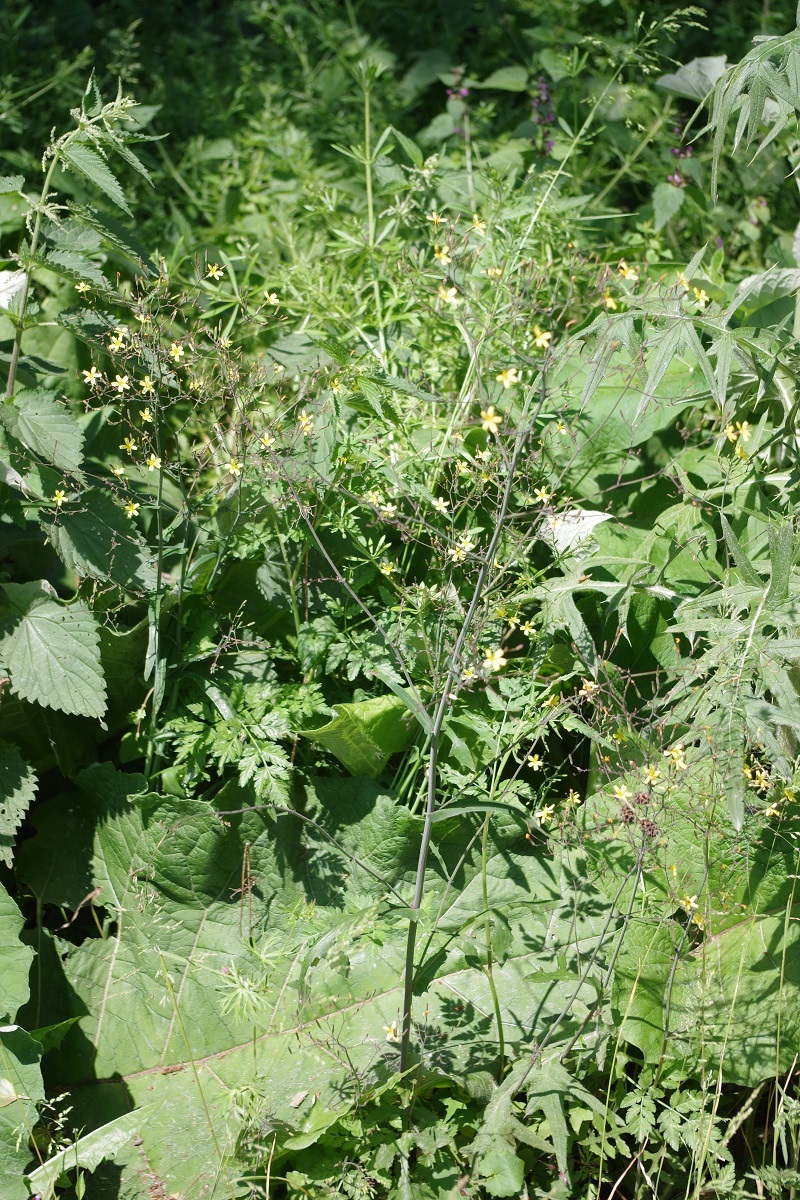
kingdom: Plantae
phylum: Tracheophyta
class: Magnoliopsida
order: Asterales
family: Asteraceae
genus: Mycelis
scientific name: Mycelis muralis
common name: Wall lettuce
